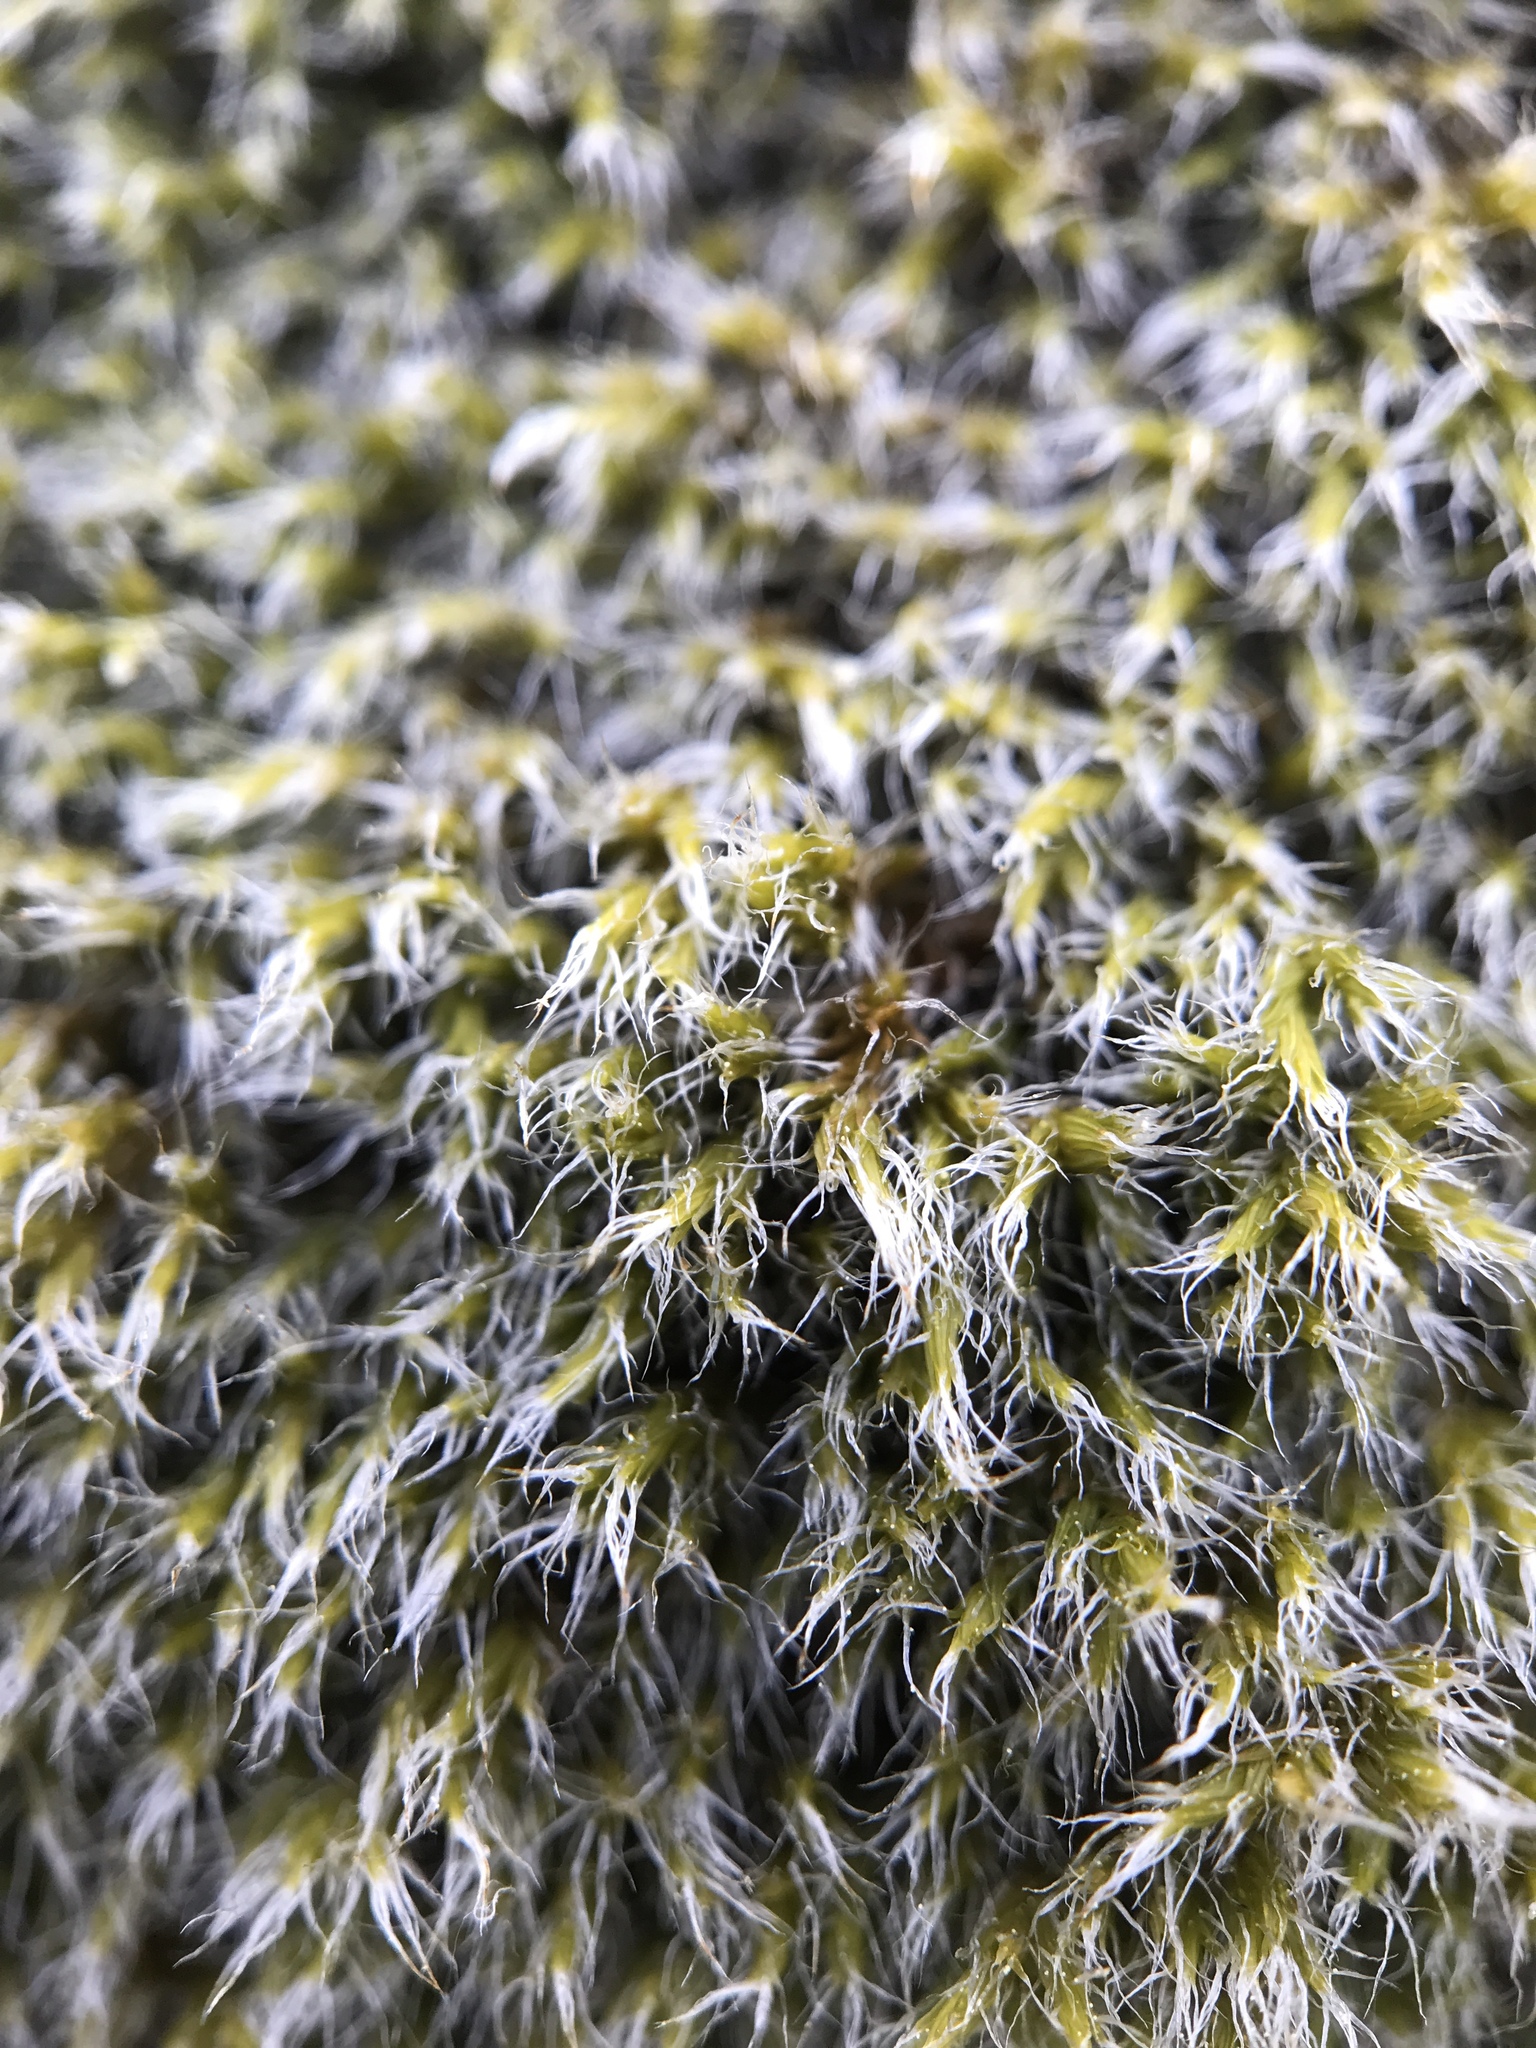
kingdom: Plantae
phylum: Bryophyta
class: Bryopsida
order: Grimmiales
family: Grimmiaceae
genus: Racomitrium
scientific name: Racomitrium lanuginosum
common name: Hoary rock moss
